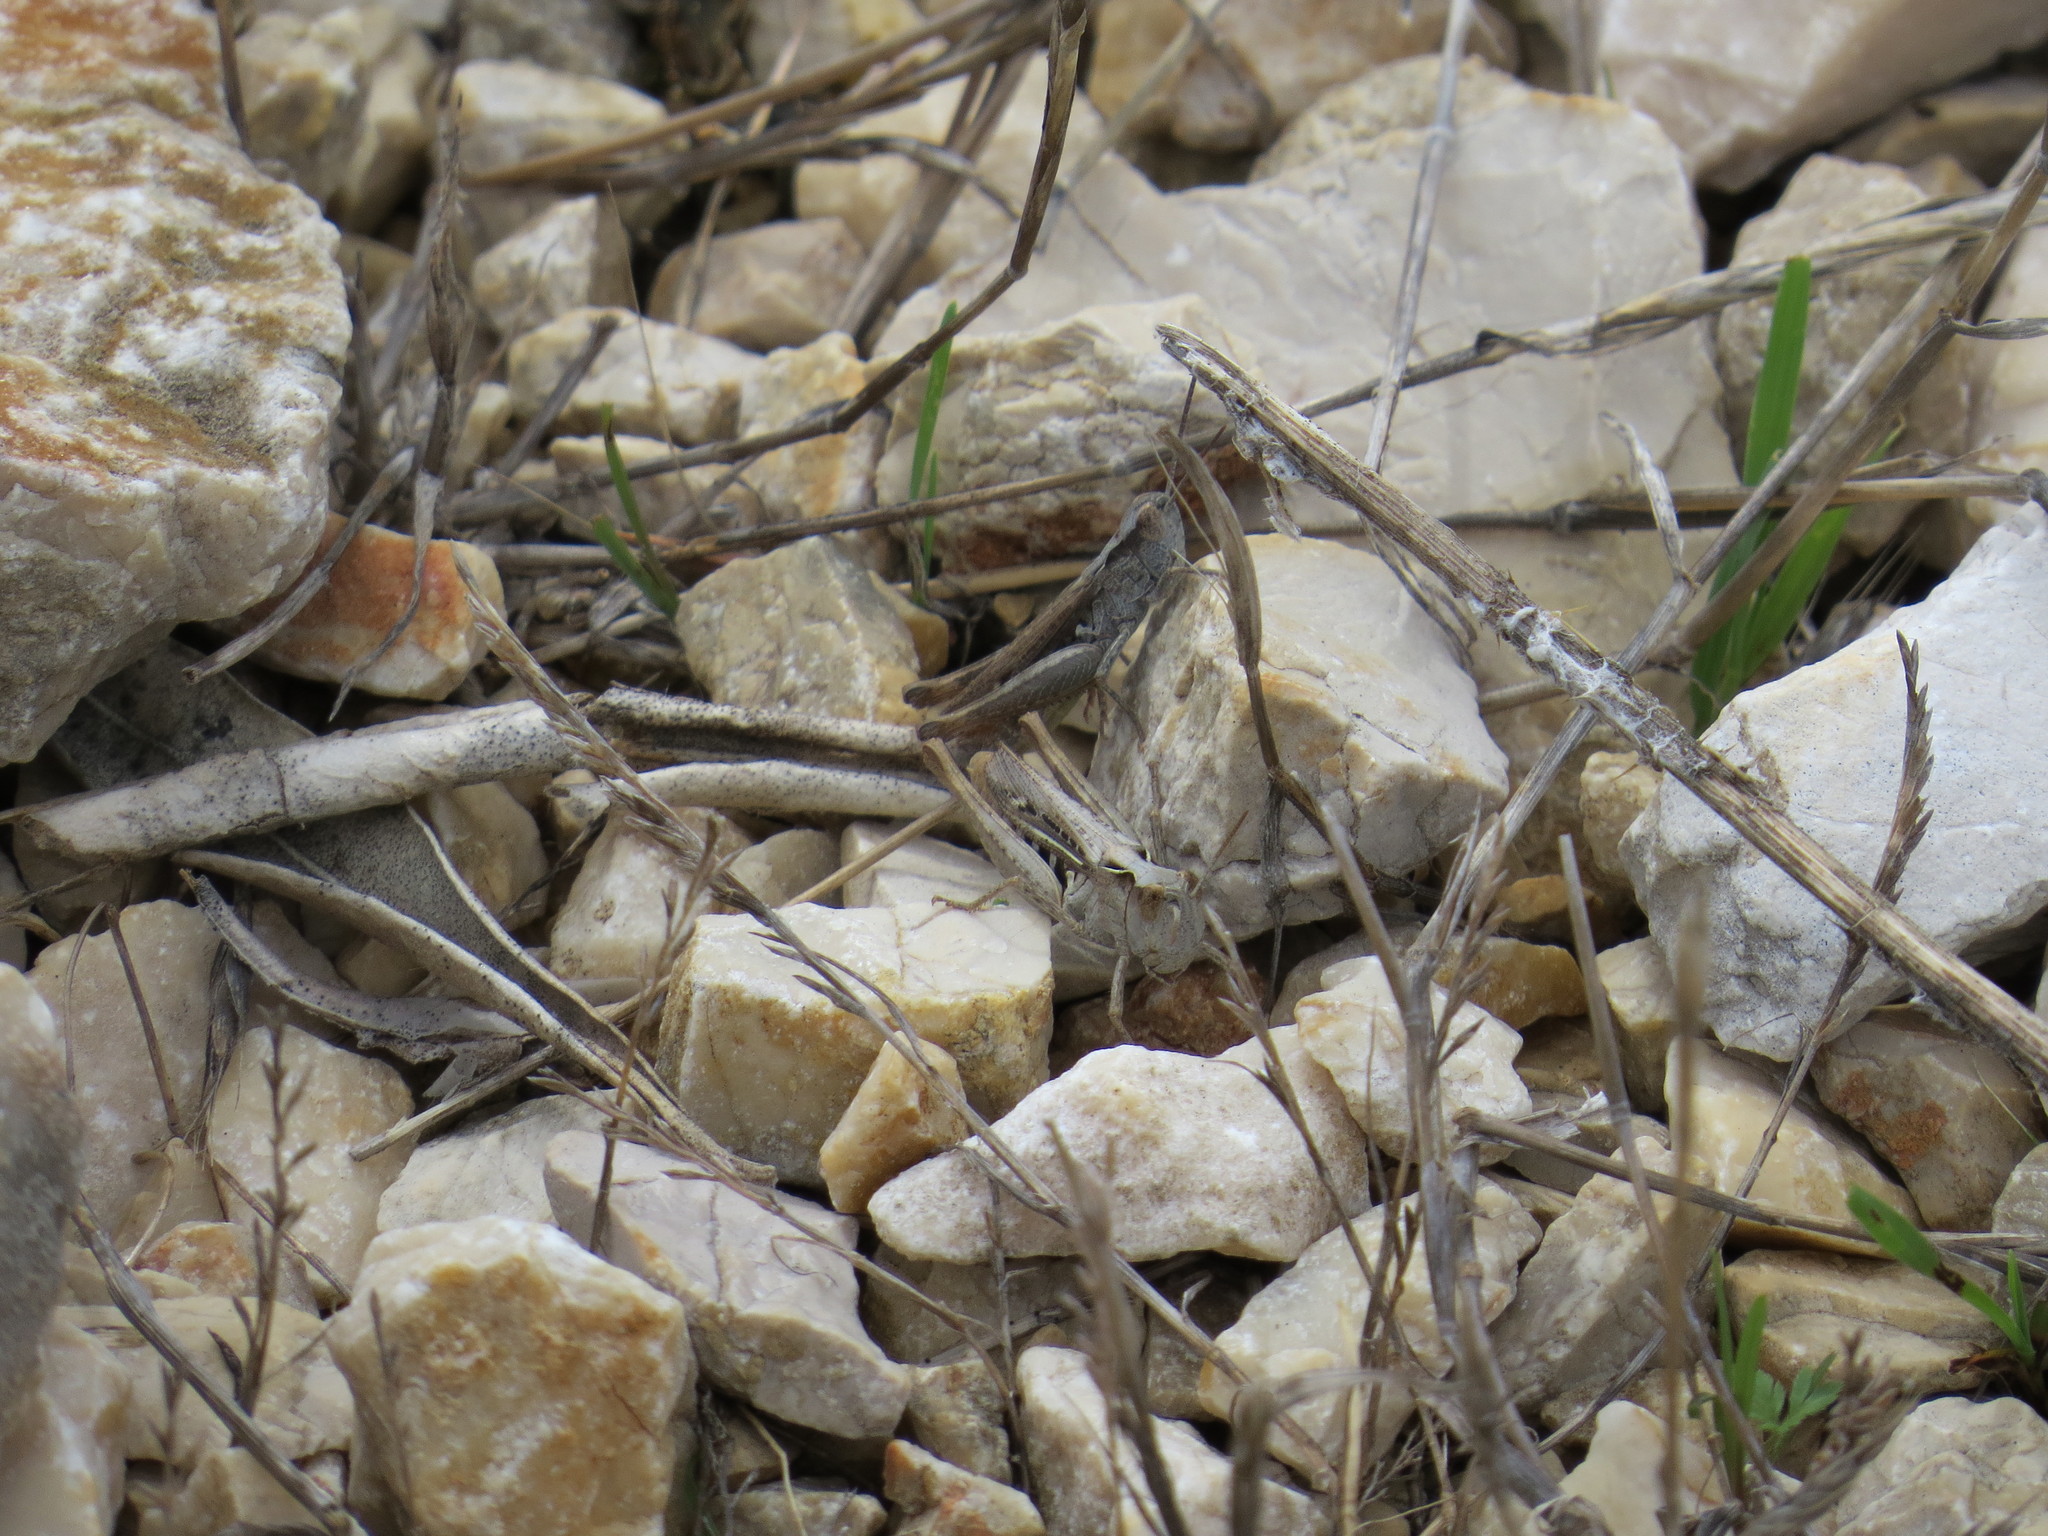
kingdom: Animalia
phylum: Arthropoda
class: Insecta
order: Orthoptera
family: Acrididae
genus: Chorthippus
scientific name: Chorthippus mollis
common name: Lesser field grasshopper
